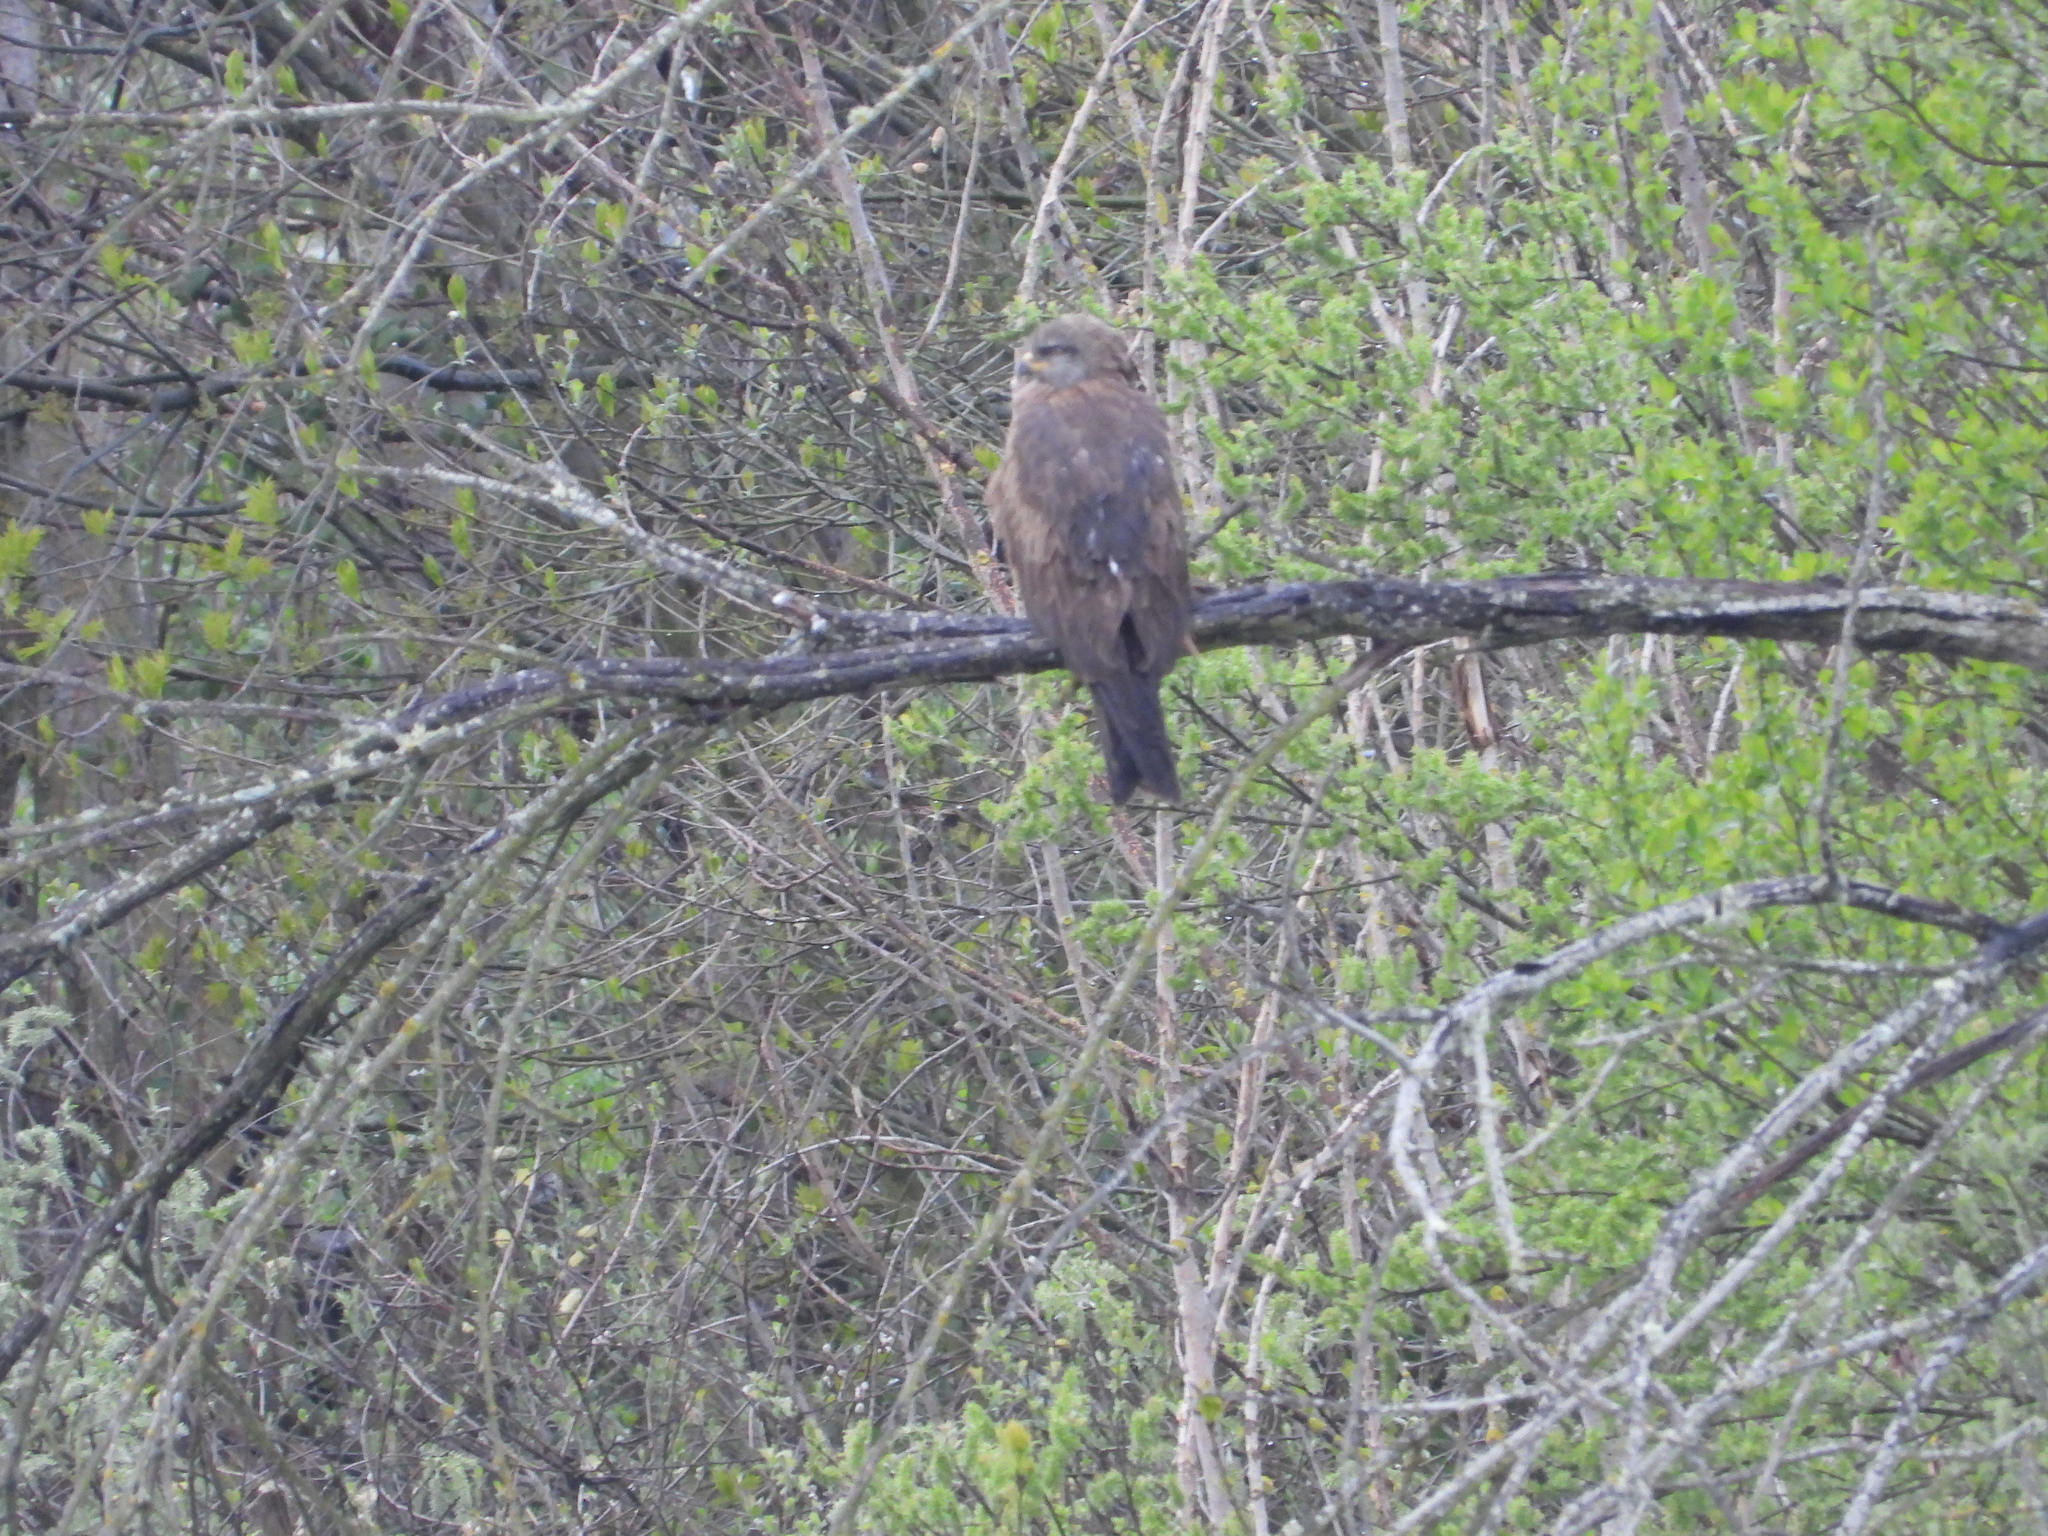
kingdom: Animalia
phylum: Chordata
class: Aves
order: Accipitriformes
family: Accipitridae
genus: Milvus
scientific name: Milvus migrans
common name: Black kite
